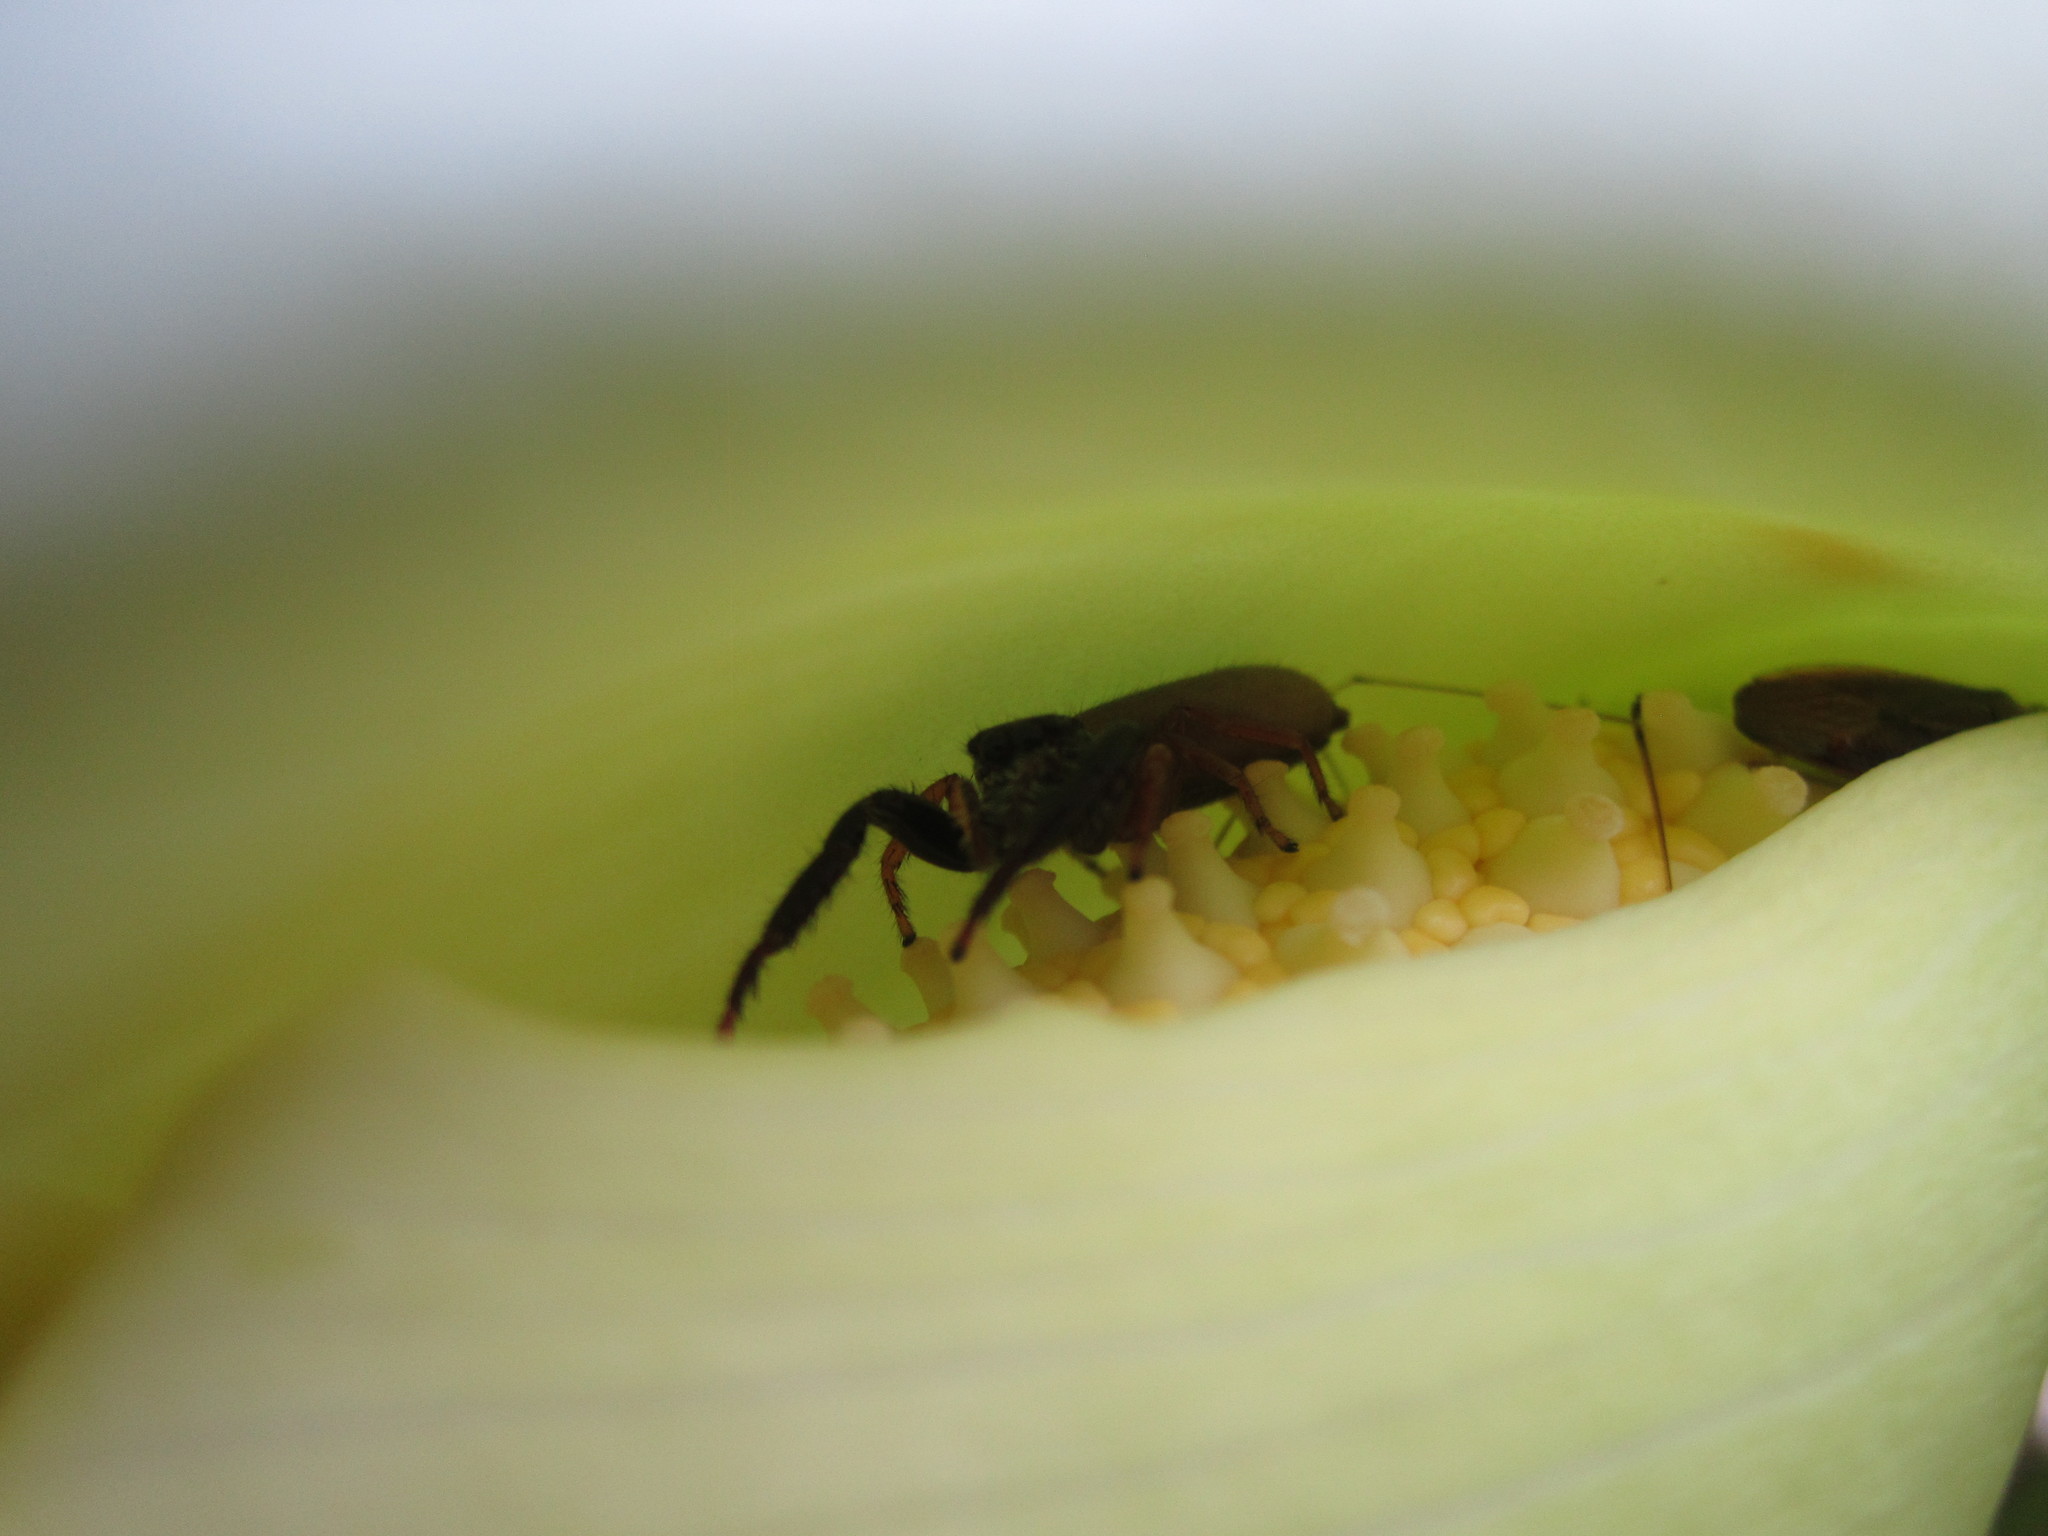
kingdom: Animalia
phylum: Arthropoda
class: Arachnida
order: Araneae
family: Salticidae
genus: Trite
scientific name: Trite planiceps
